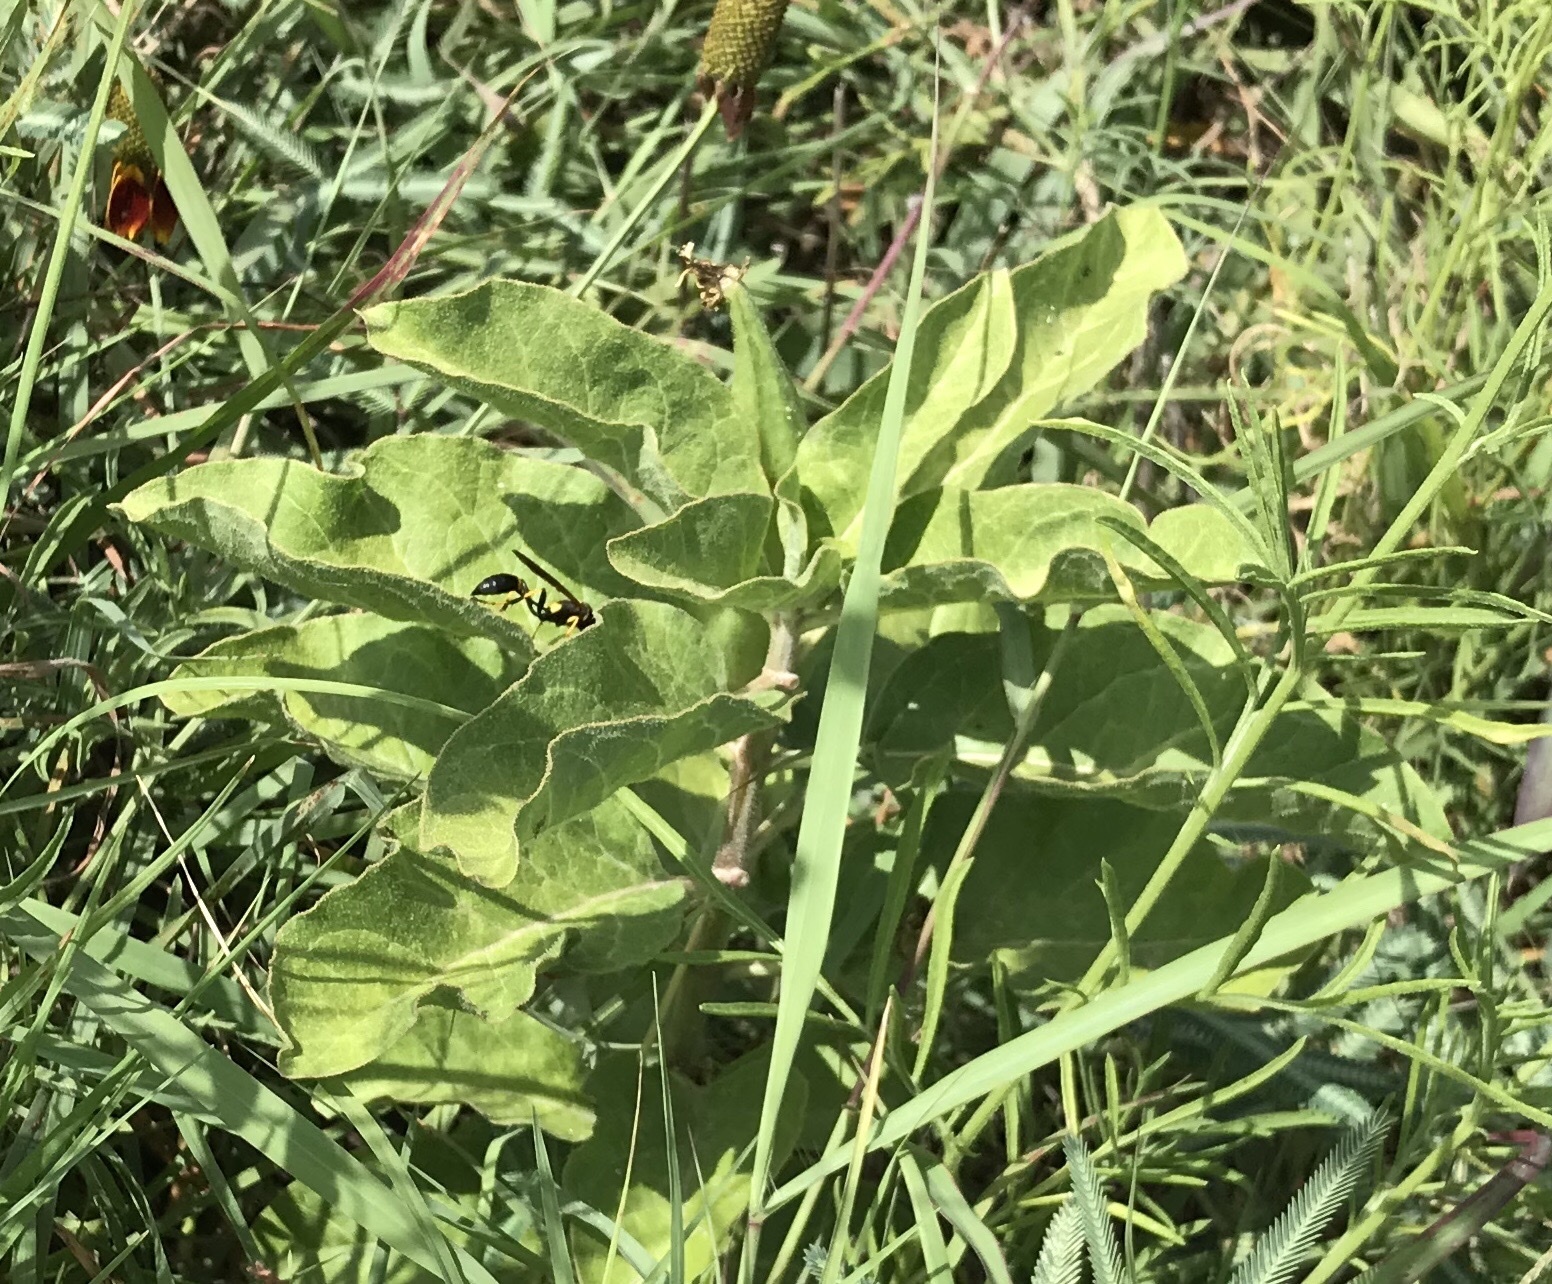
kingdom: Plantae
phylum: Tracheophyta
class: Magnoliopsida
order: Gentianales
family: Apocynaceae
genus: Asclepias
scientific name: Asclepias oenotheroides
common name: Zizotes milkweed
